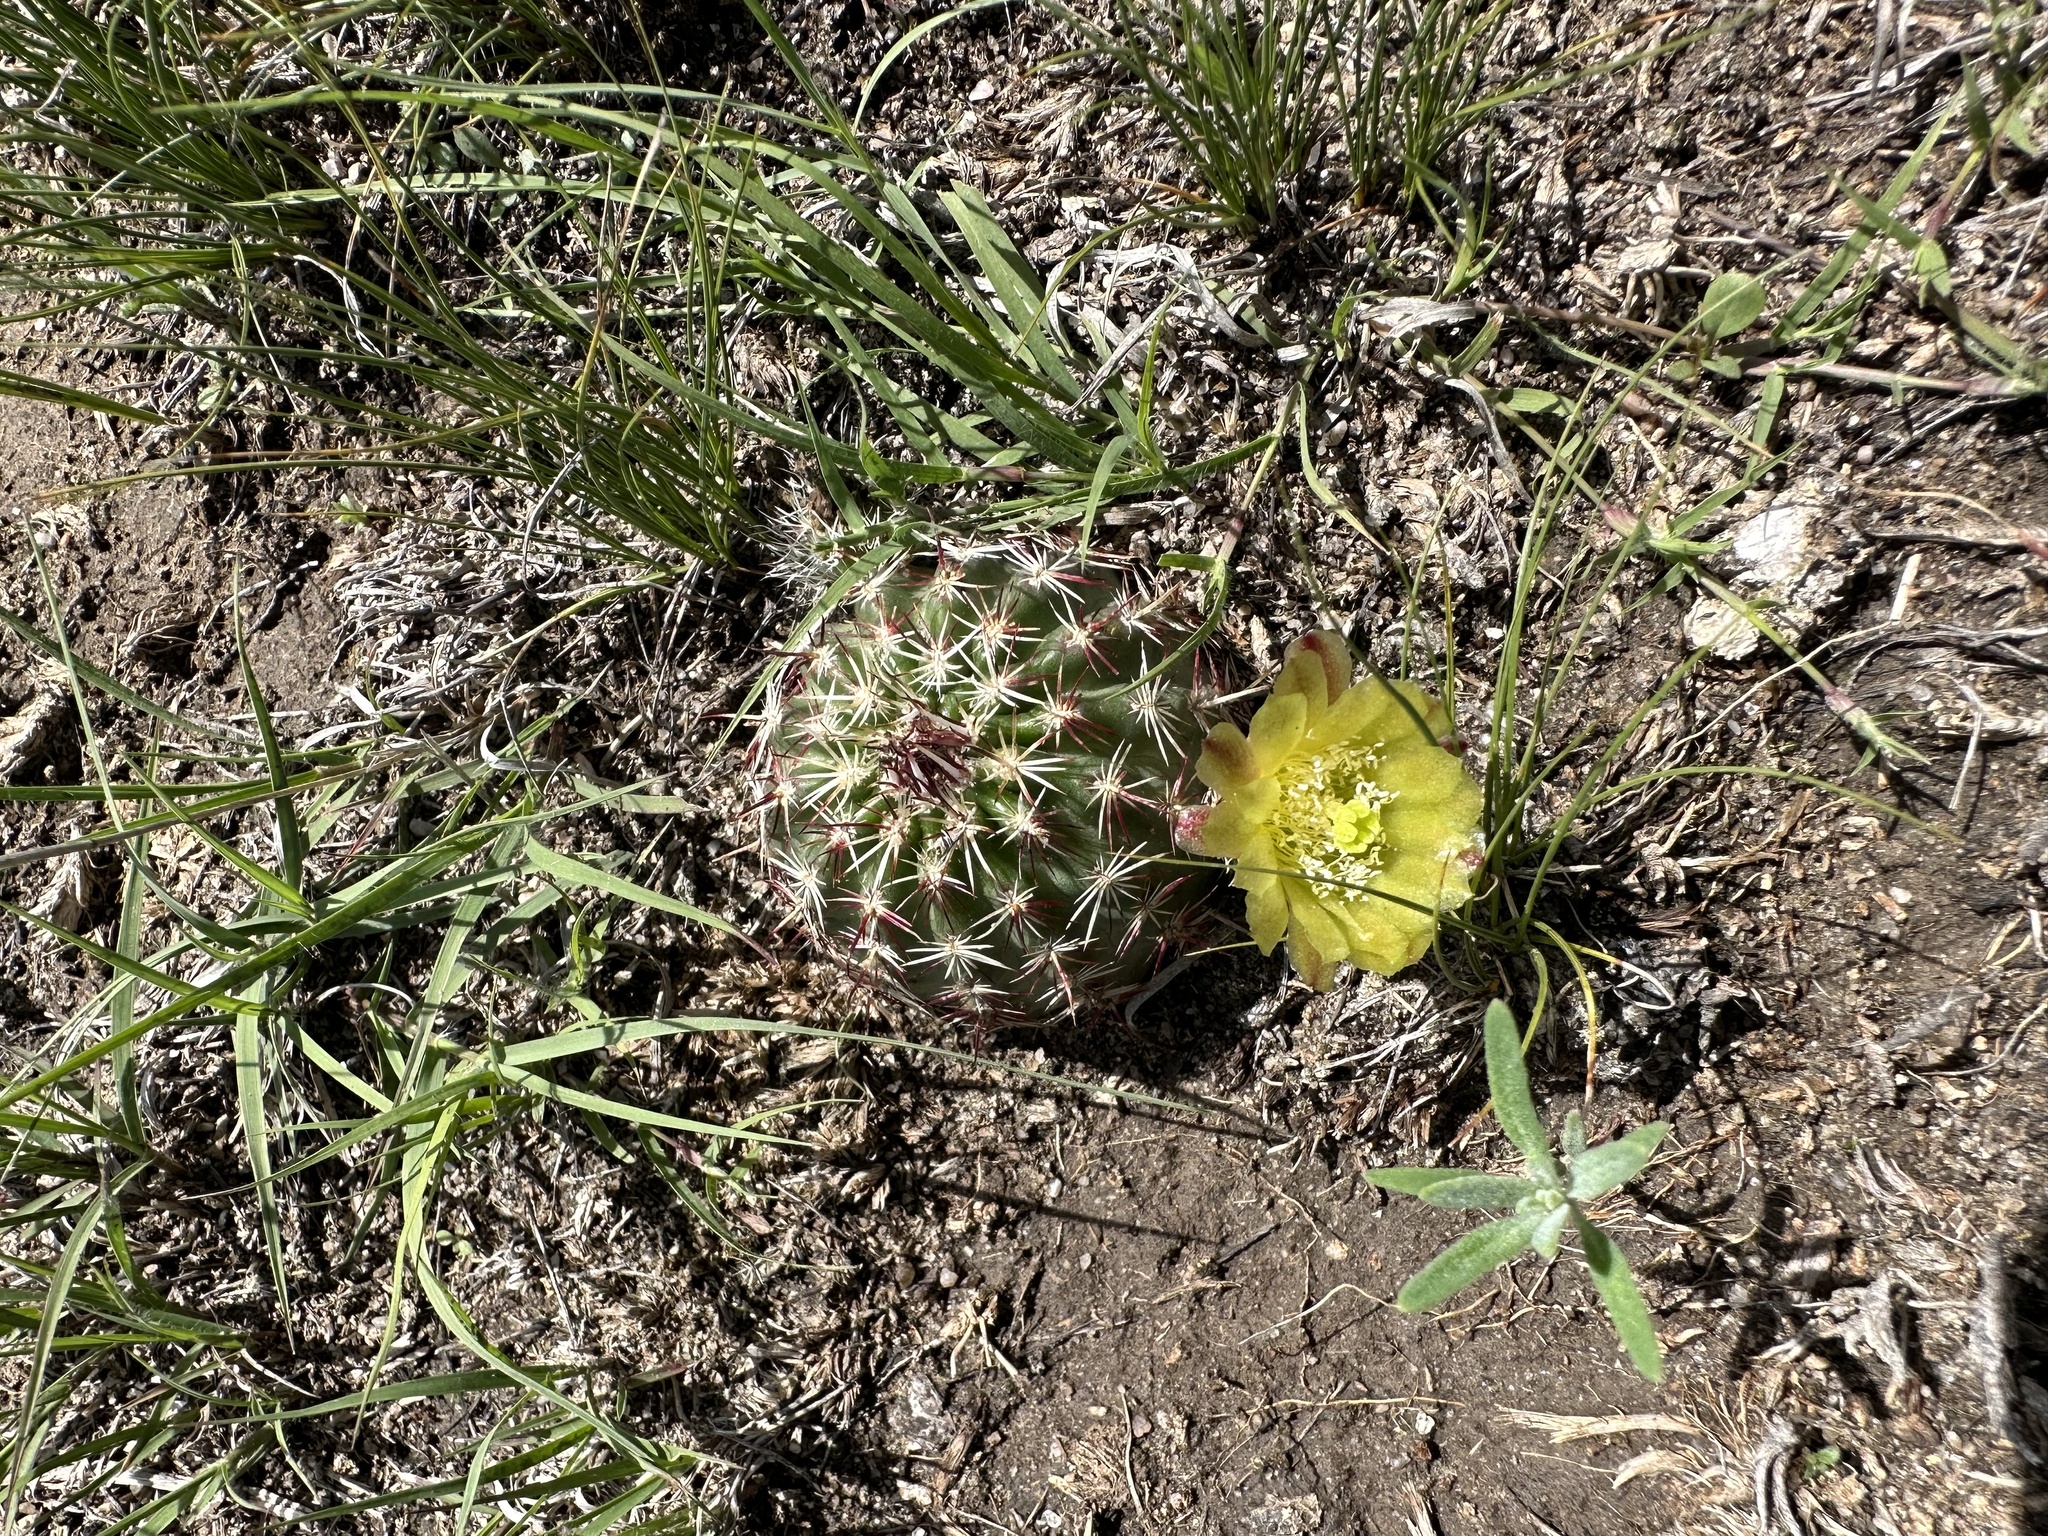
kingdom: Plantae
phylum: Tracheophyta
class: Magnoliopsida
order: Caryophyllales
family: Cactaceae
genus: Echinocereus
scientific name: Echinocereus viridiflorus
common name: Nylon hedgehog cactus
